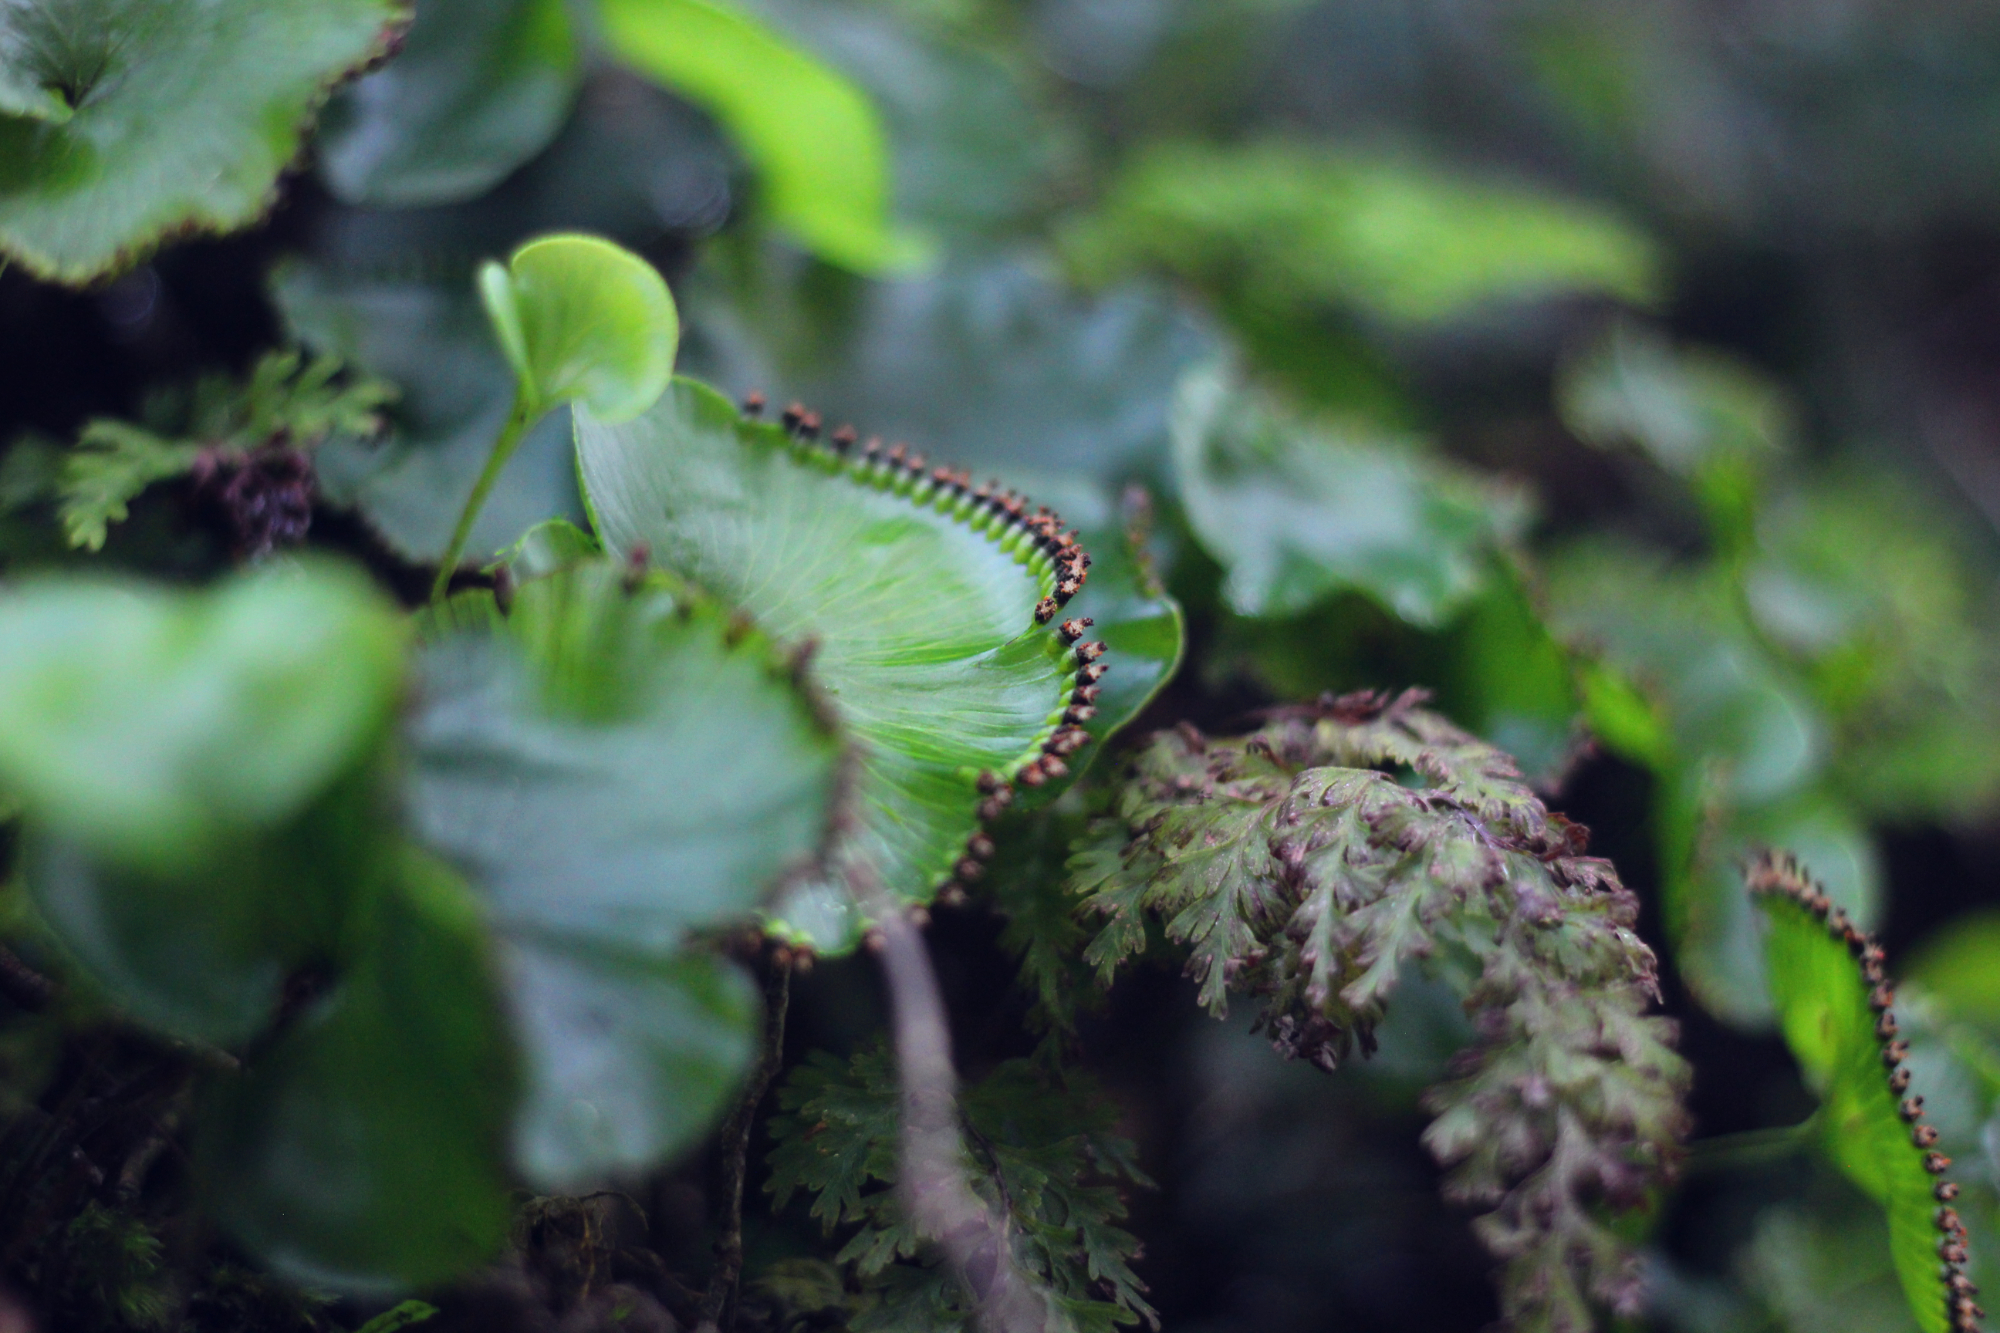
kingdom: Plantae
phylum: Tracheophyta
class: Polypodiopsida
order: Hymenophyllales
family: Hymenophyllaceae
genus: Hymenophyllum
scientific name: Hymenophyllum nephrophyllum
